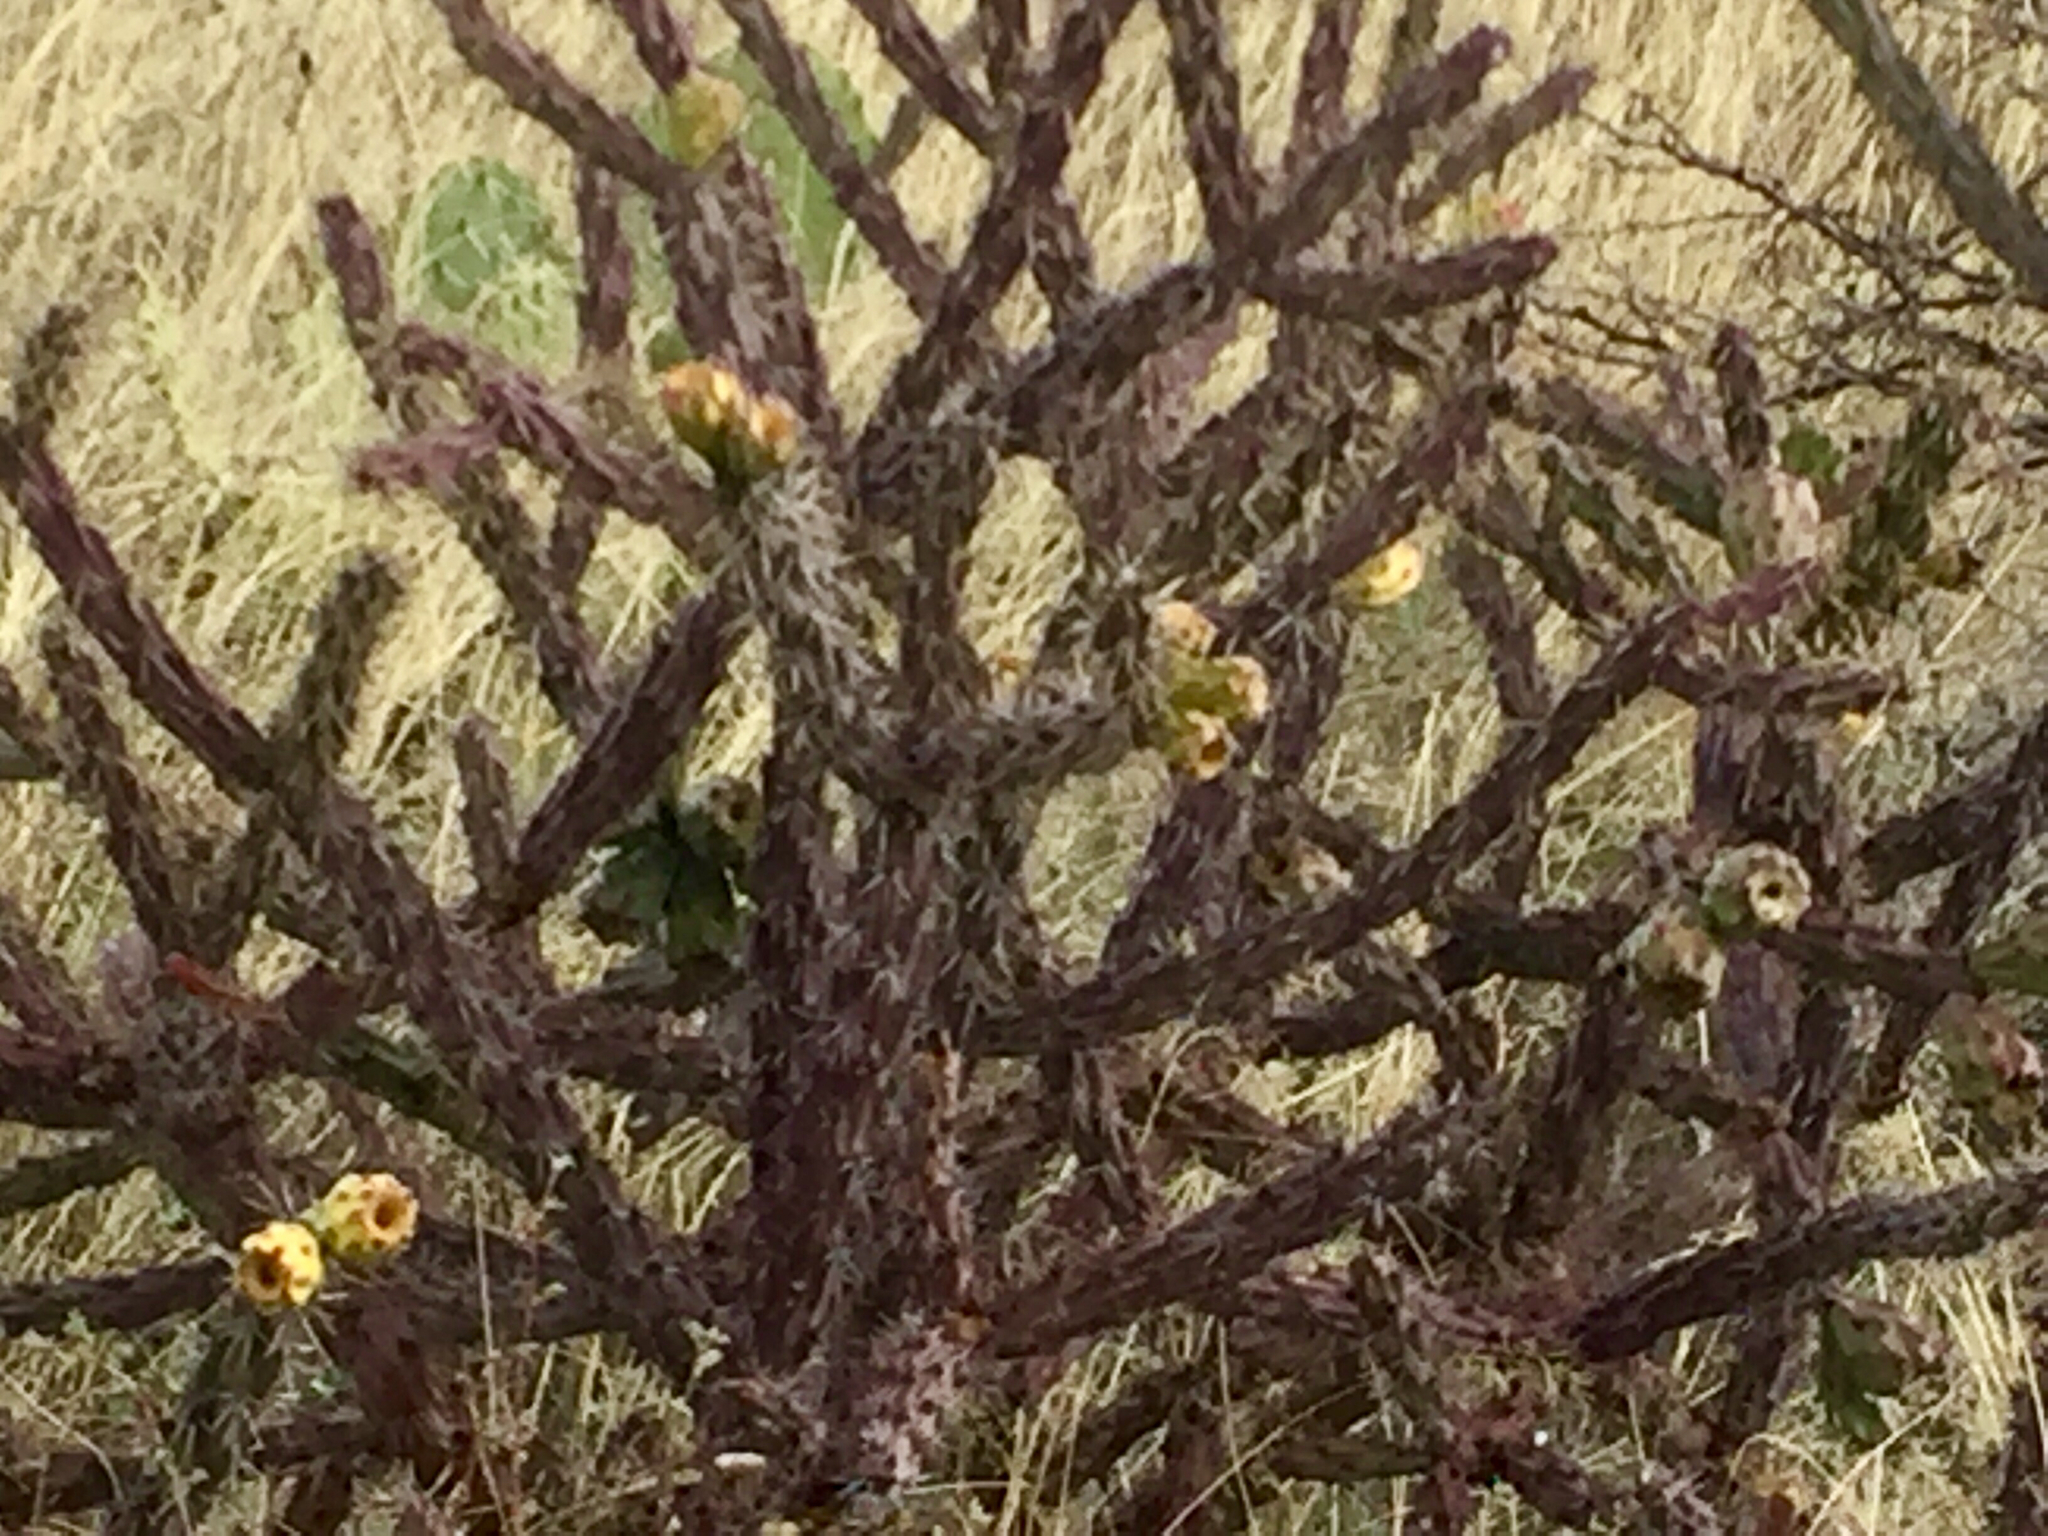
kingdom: Plantae
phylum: Tracheophyta
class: Magnoliopsida
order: Caryophyllales
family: Cactaceae
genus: Cylindropuntia
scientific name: Cylindropuntia thurberi
